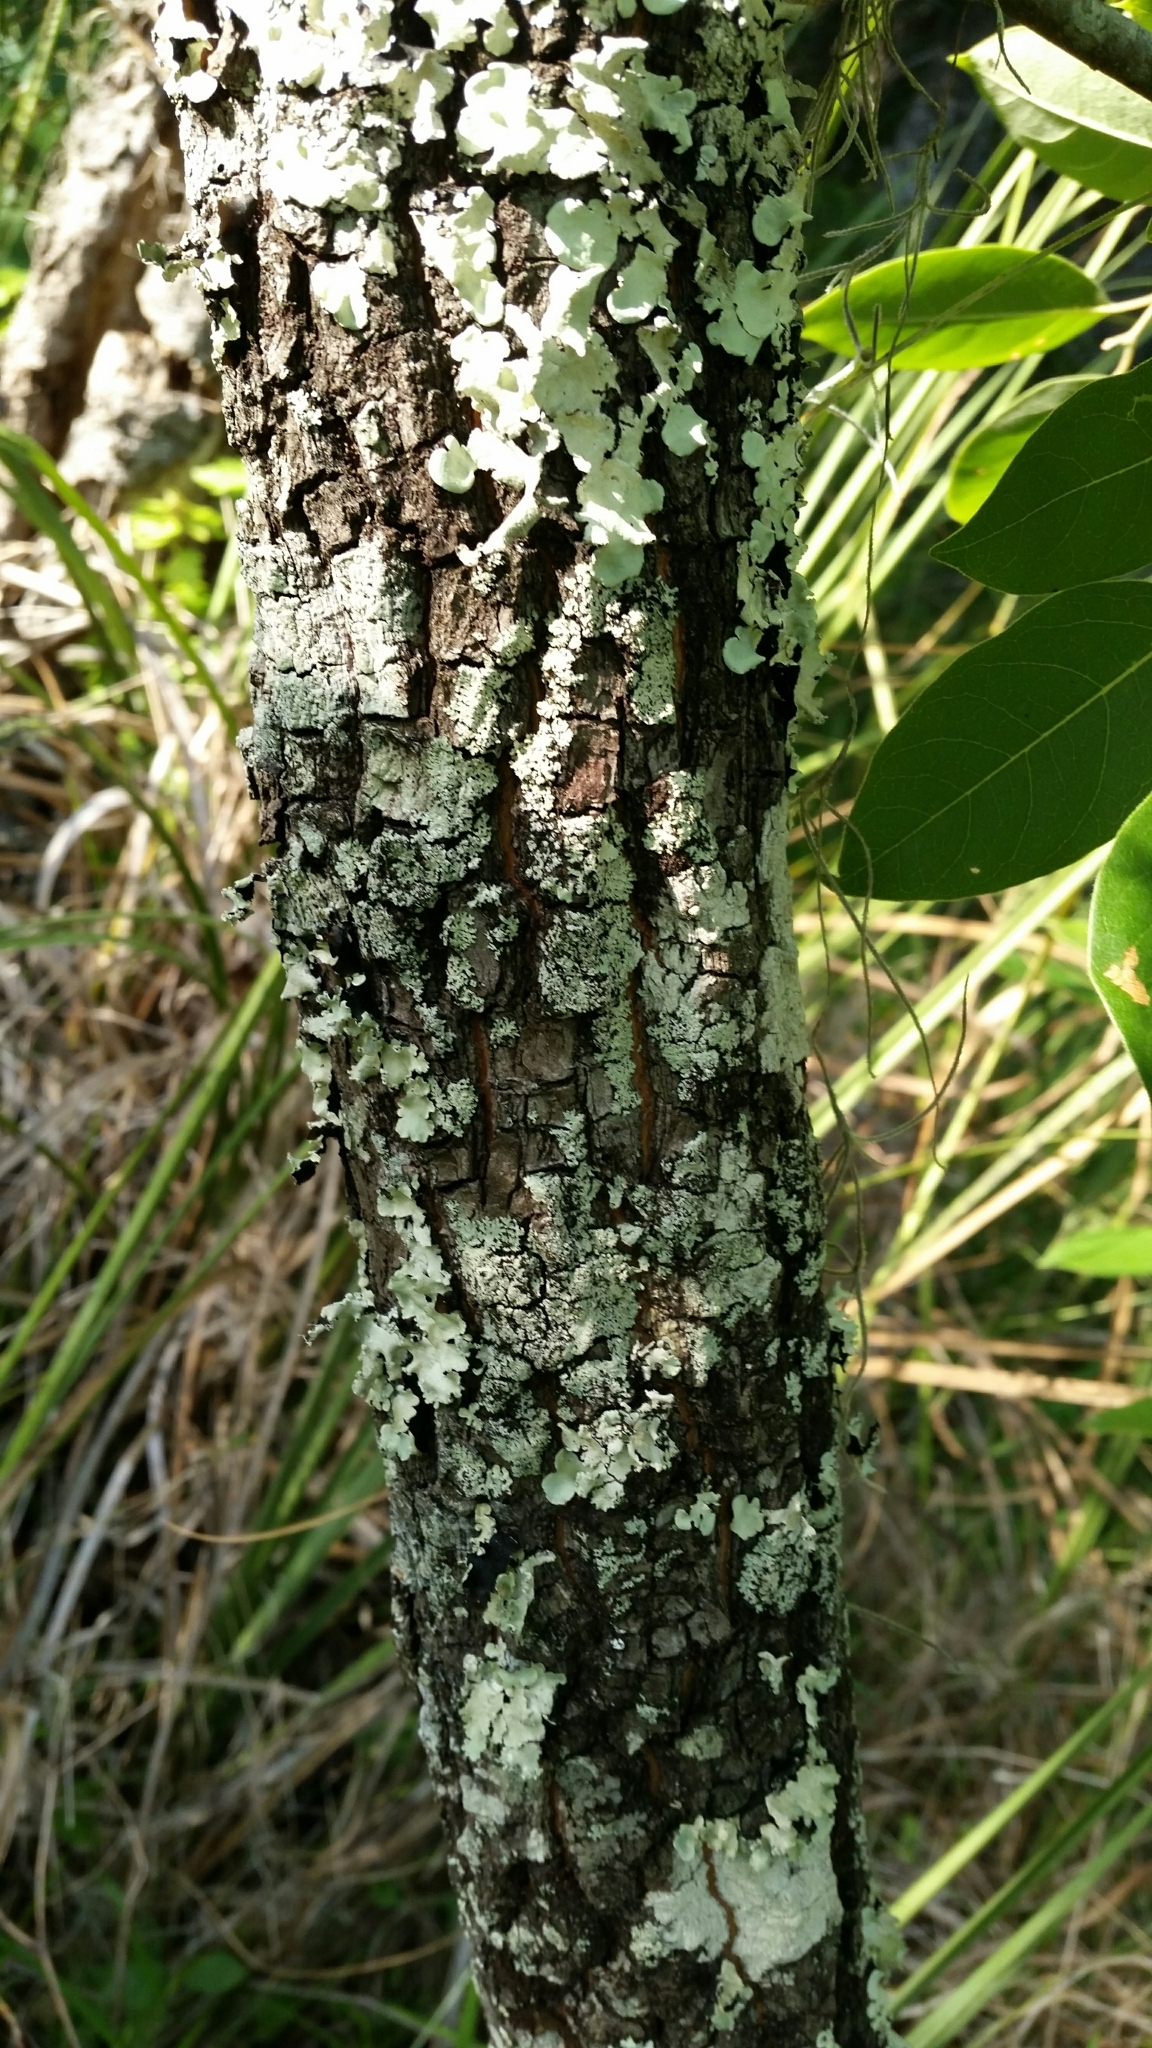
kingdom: Plantae
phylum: Tracheophyta
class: Magnoliopsida
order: Ericales
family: Ebenaceae
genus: Diospyros
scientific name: Diospyros virginiana
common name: Persimmon
